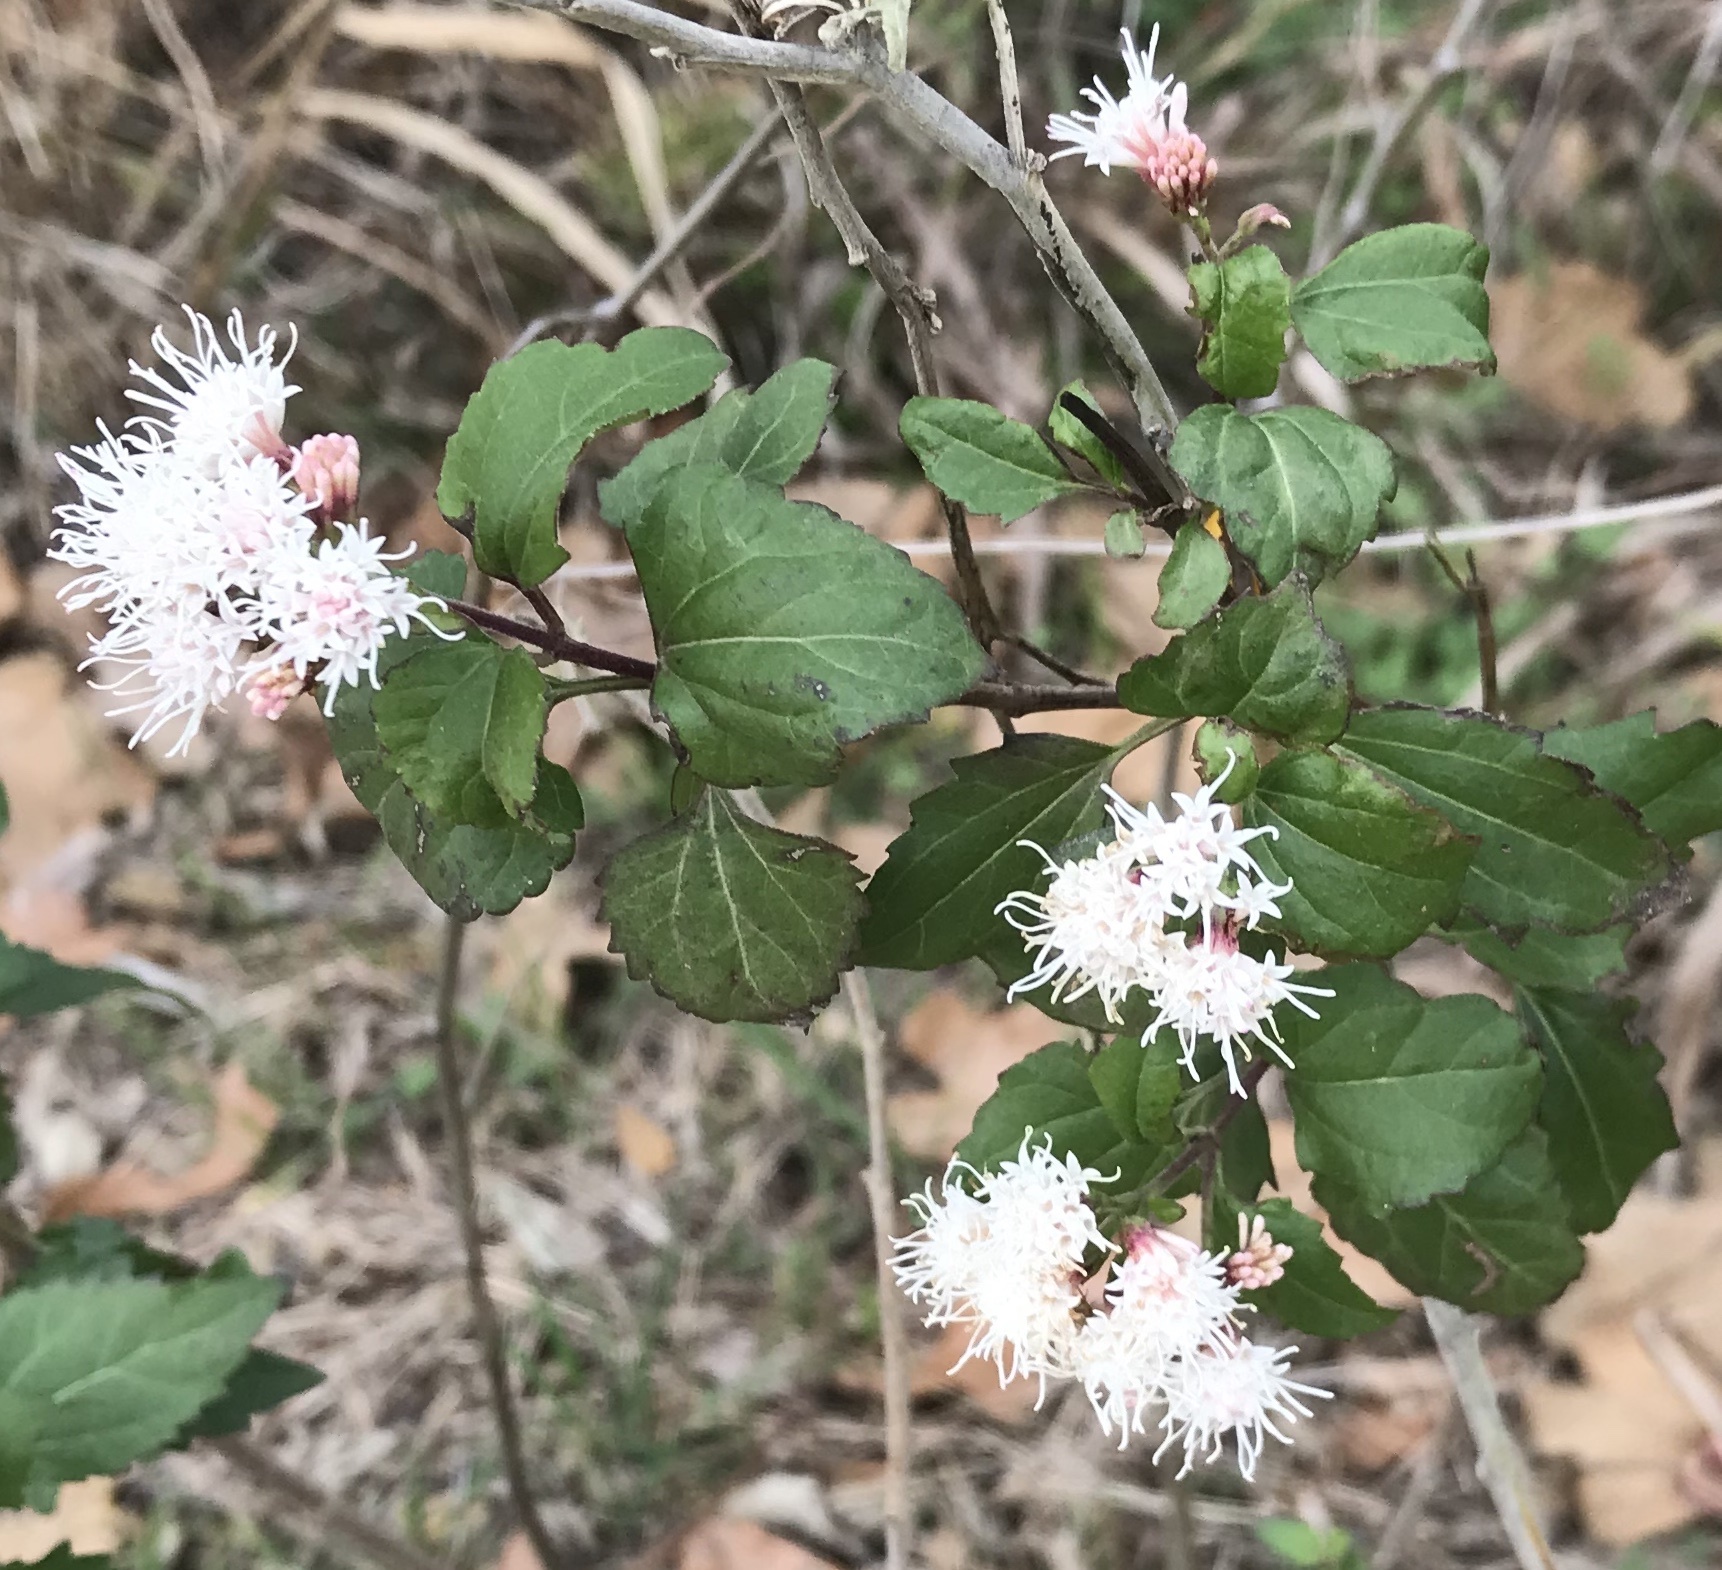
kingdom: Plantae
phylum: Tracheophyta
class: Magnoliopsida
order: Asterales
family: Asteraceae
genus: Ageratina
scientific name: Ageratina havanensis
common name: Havana snakeroot
